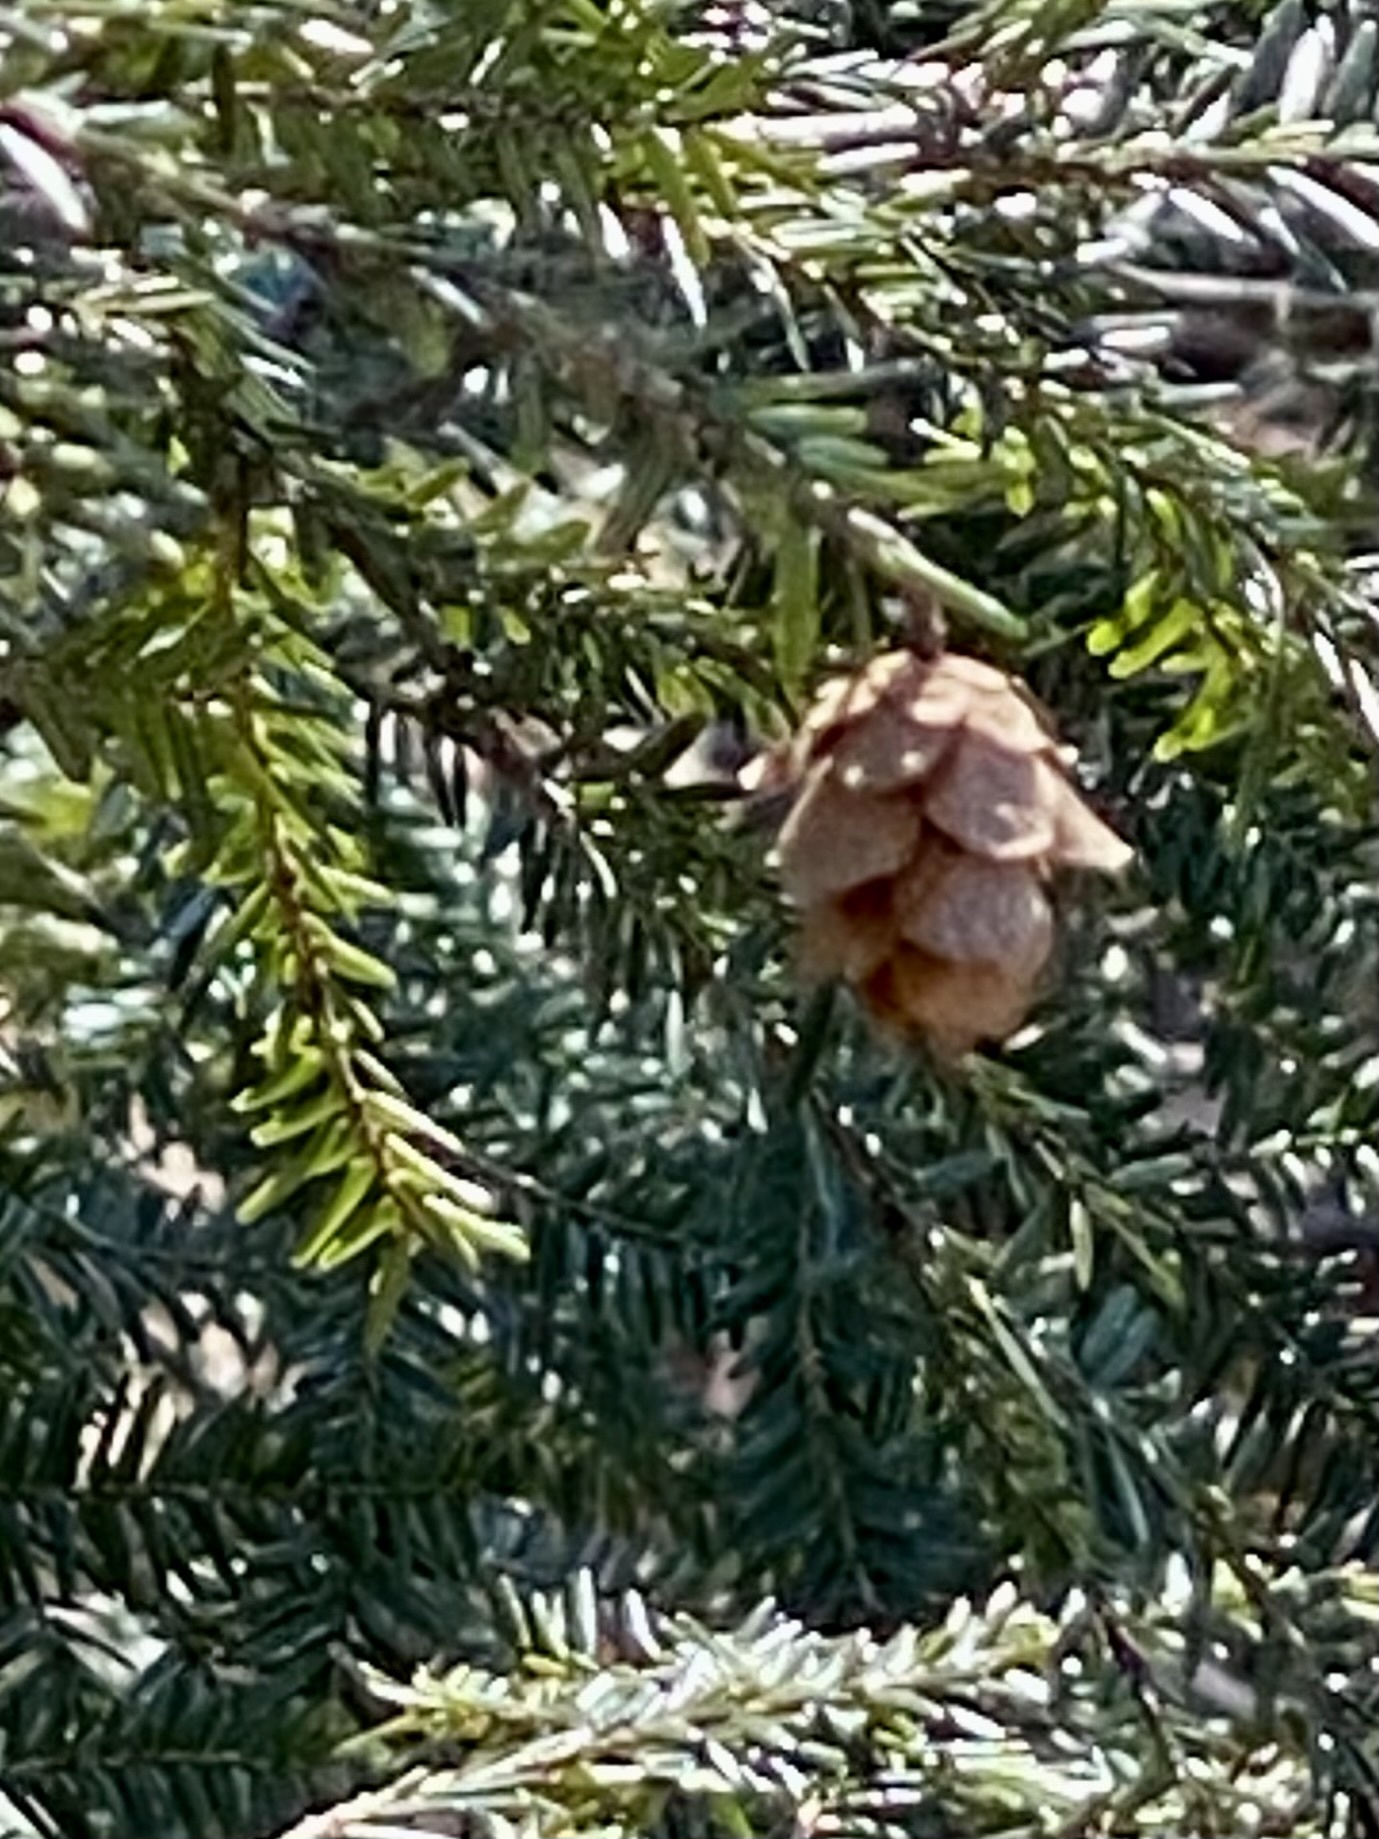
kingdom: Plantae
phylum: Tracheophyta
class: Pinopsida
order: Pinales
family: Pinaceae
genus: Tsuga
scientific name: Tsuga canadensis
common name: Eastern hemlock
